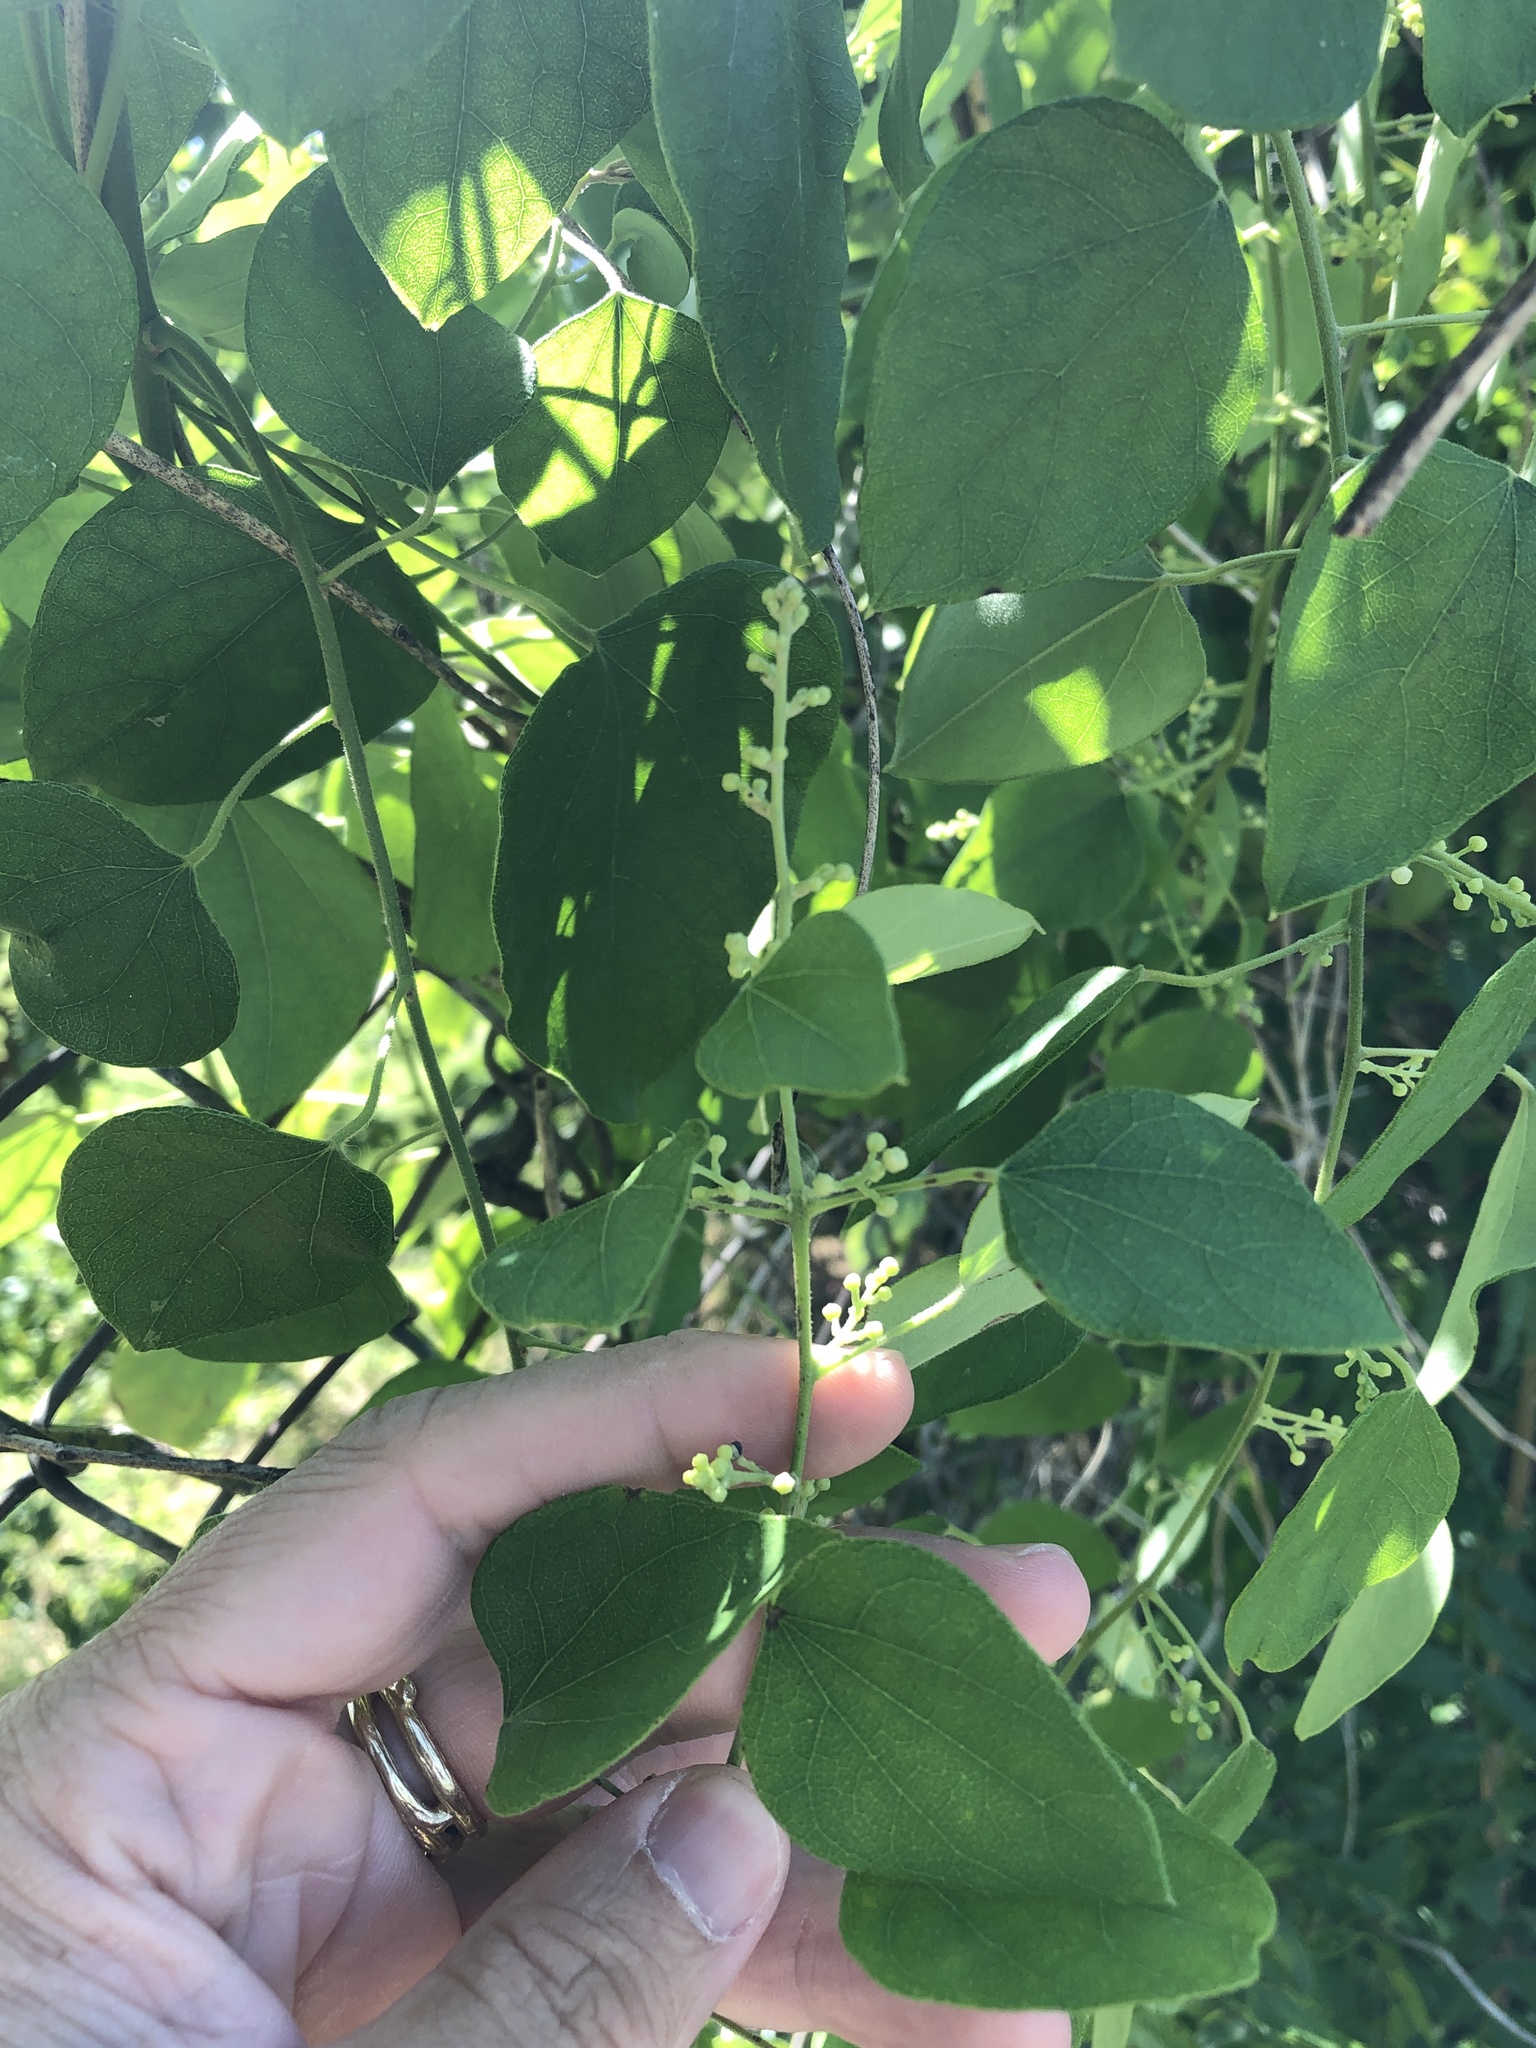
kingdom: Plantae
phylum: Tracheophyta
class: Magnoliopsida
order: Ranunculales
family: Menispermaceae
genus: Cocculus
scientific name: Cocculus carolinus
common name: Carolina moonseed
